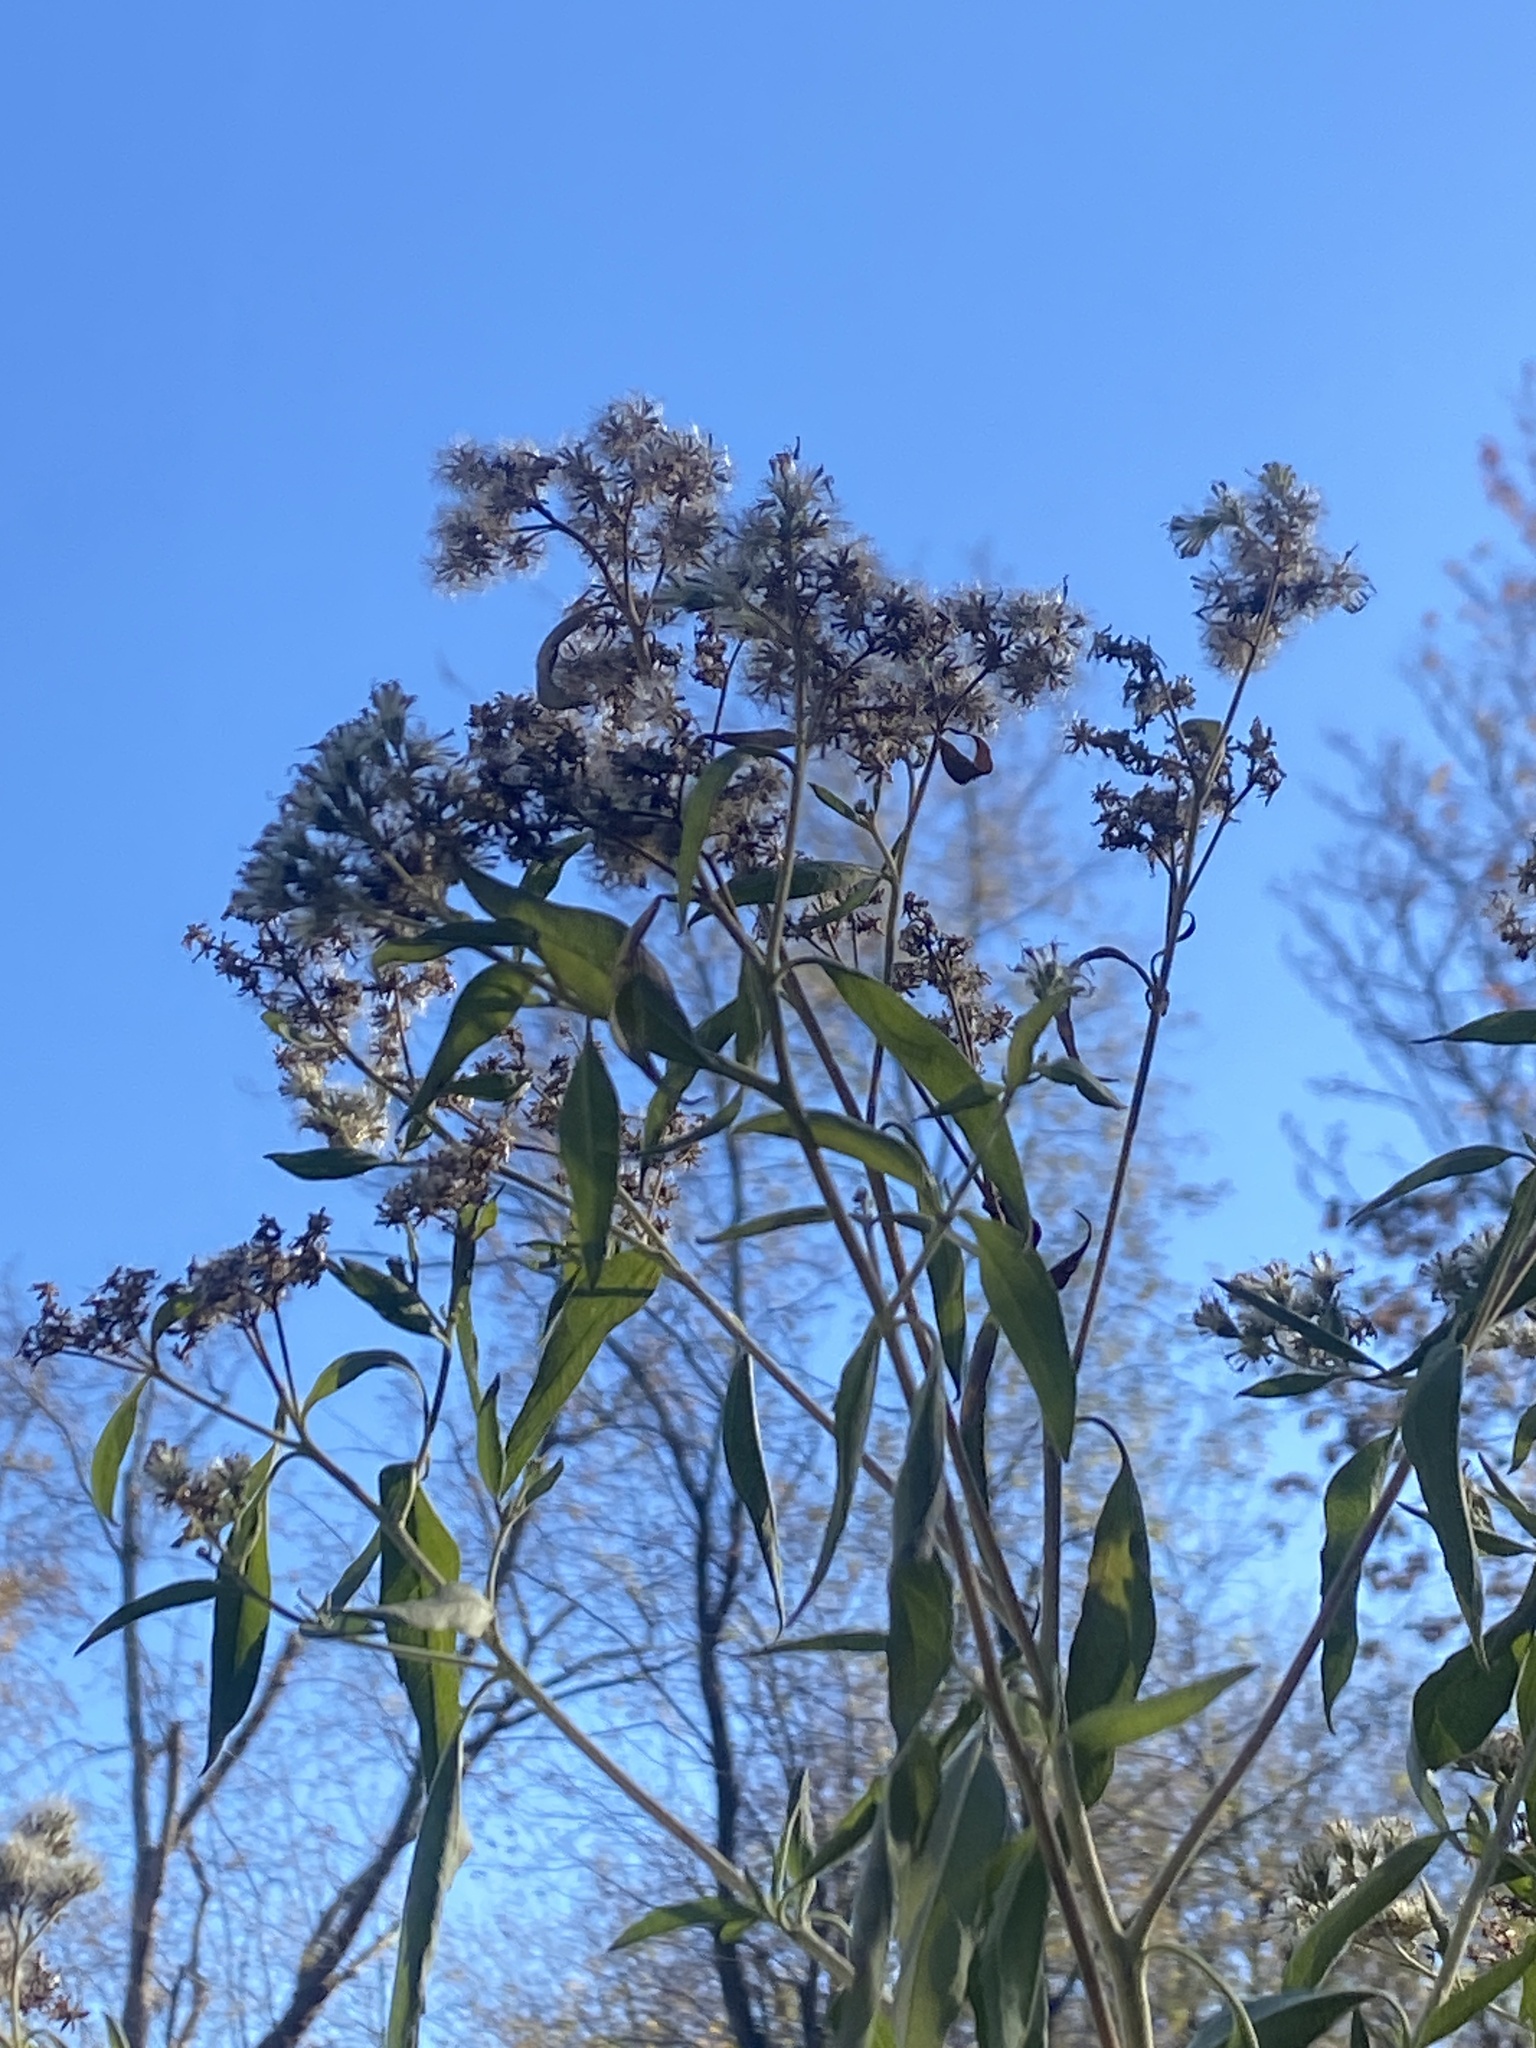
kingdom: Plantae
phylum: Tracheophyta
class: Magnoliopsida
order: Asterales
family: Asteraceae
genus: Eupatorium
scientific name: Eupatorium serotinum
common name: Late boneset
